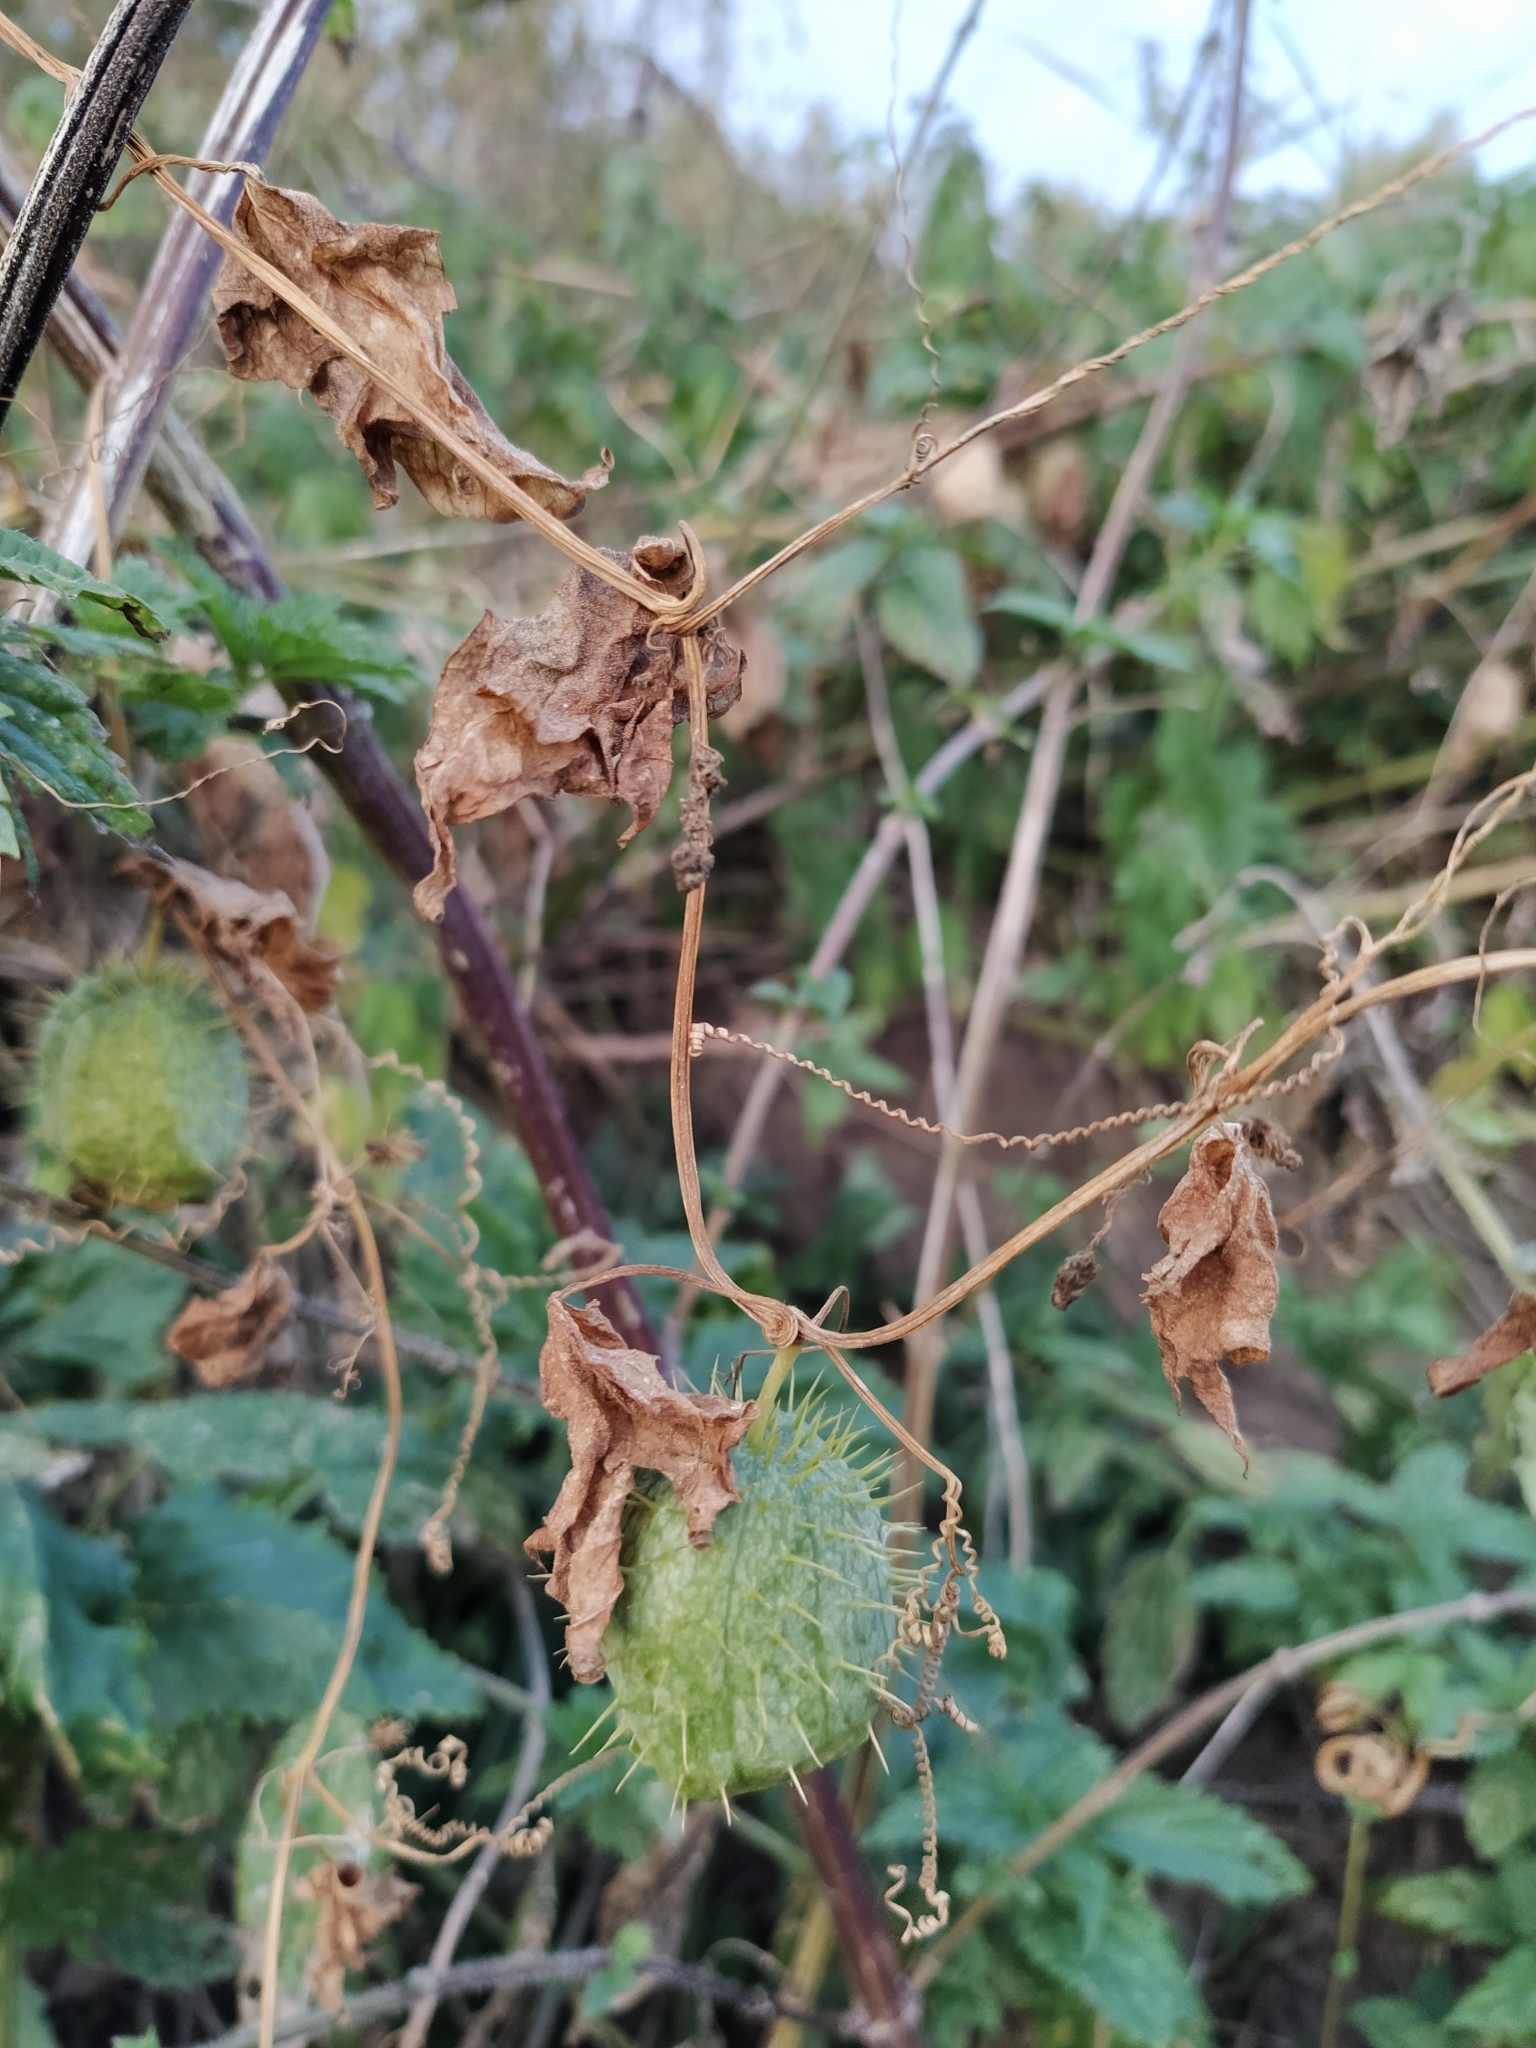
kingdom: Plantae
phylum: Tracheophyta
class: Magnoliopsida
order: Cucurbitales
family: Cucurbitaceae
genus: Echinocystis
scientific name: Echinocystis lobata
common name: Wild cucumber
